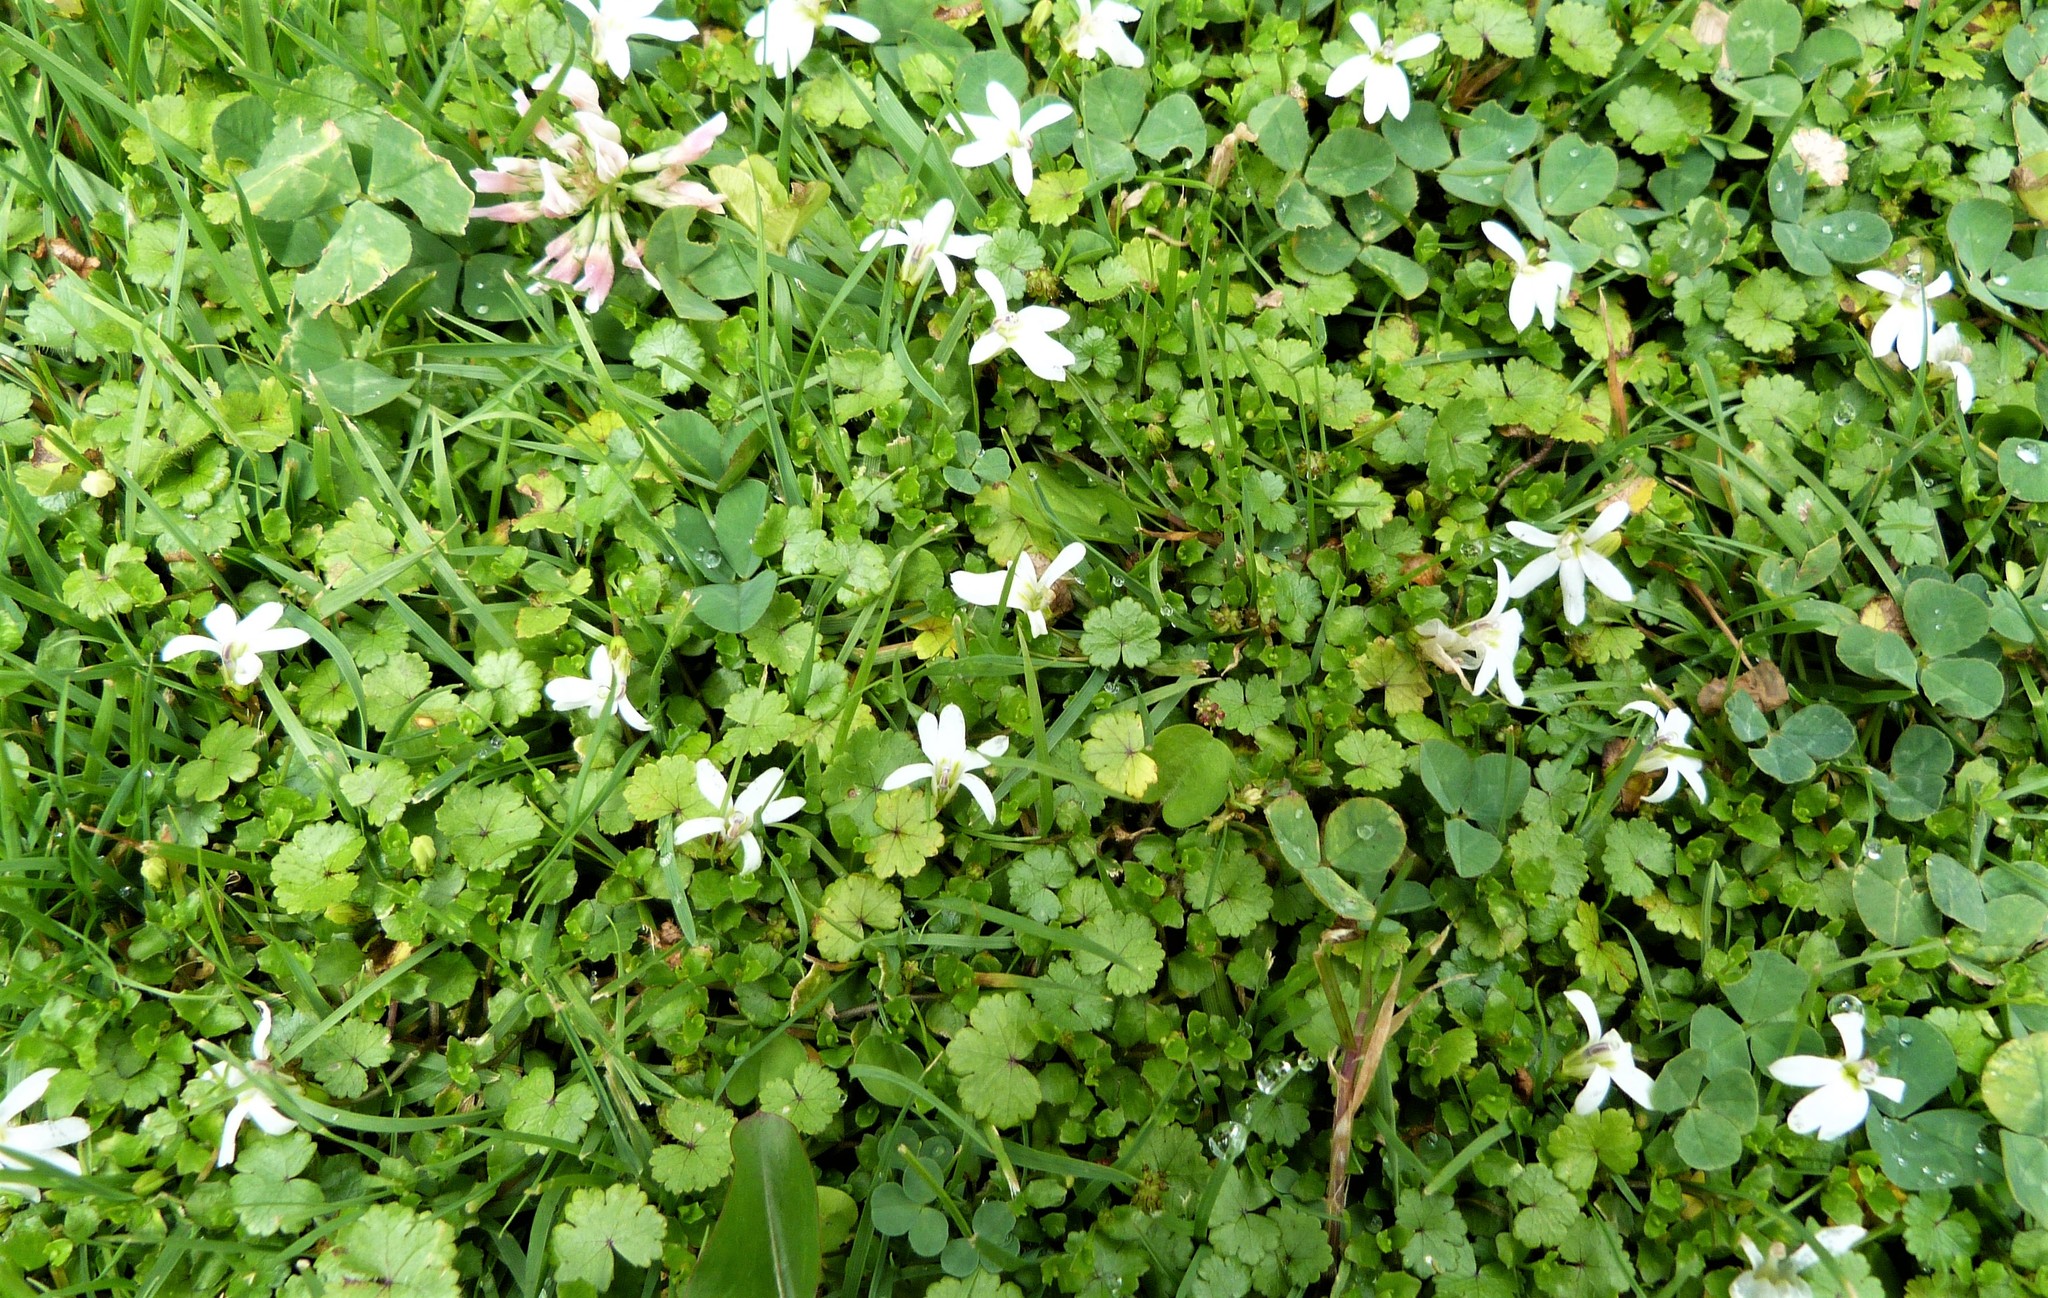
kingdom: Plantae
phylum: Tracheophyta
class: Magnoliopsida
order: Asterales
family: Campanulaceae
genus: Lobelia
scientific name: Lobelia angulata
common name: Lawn lobelia
